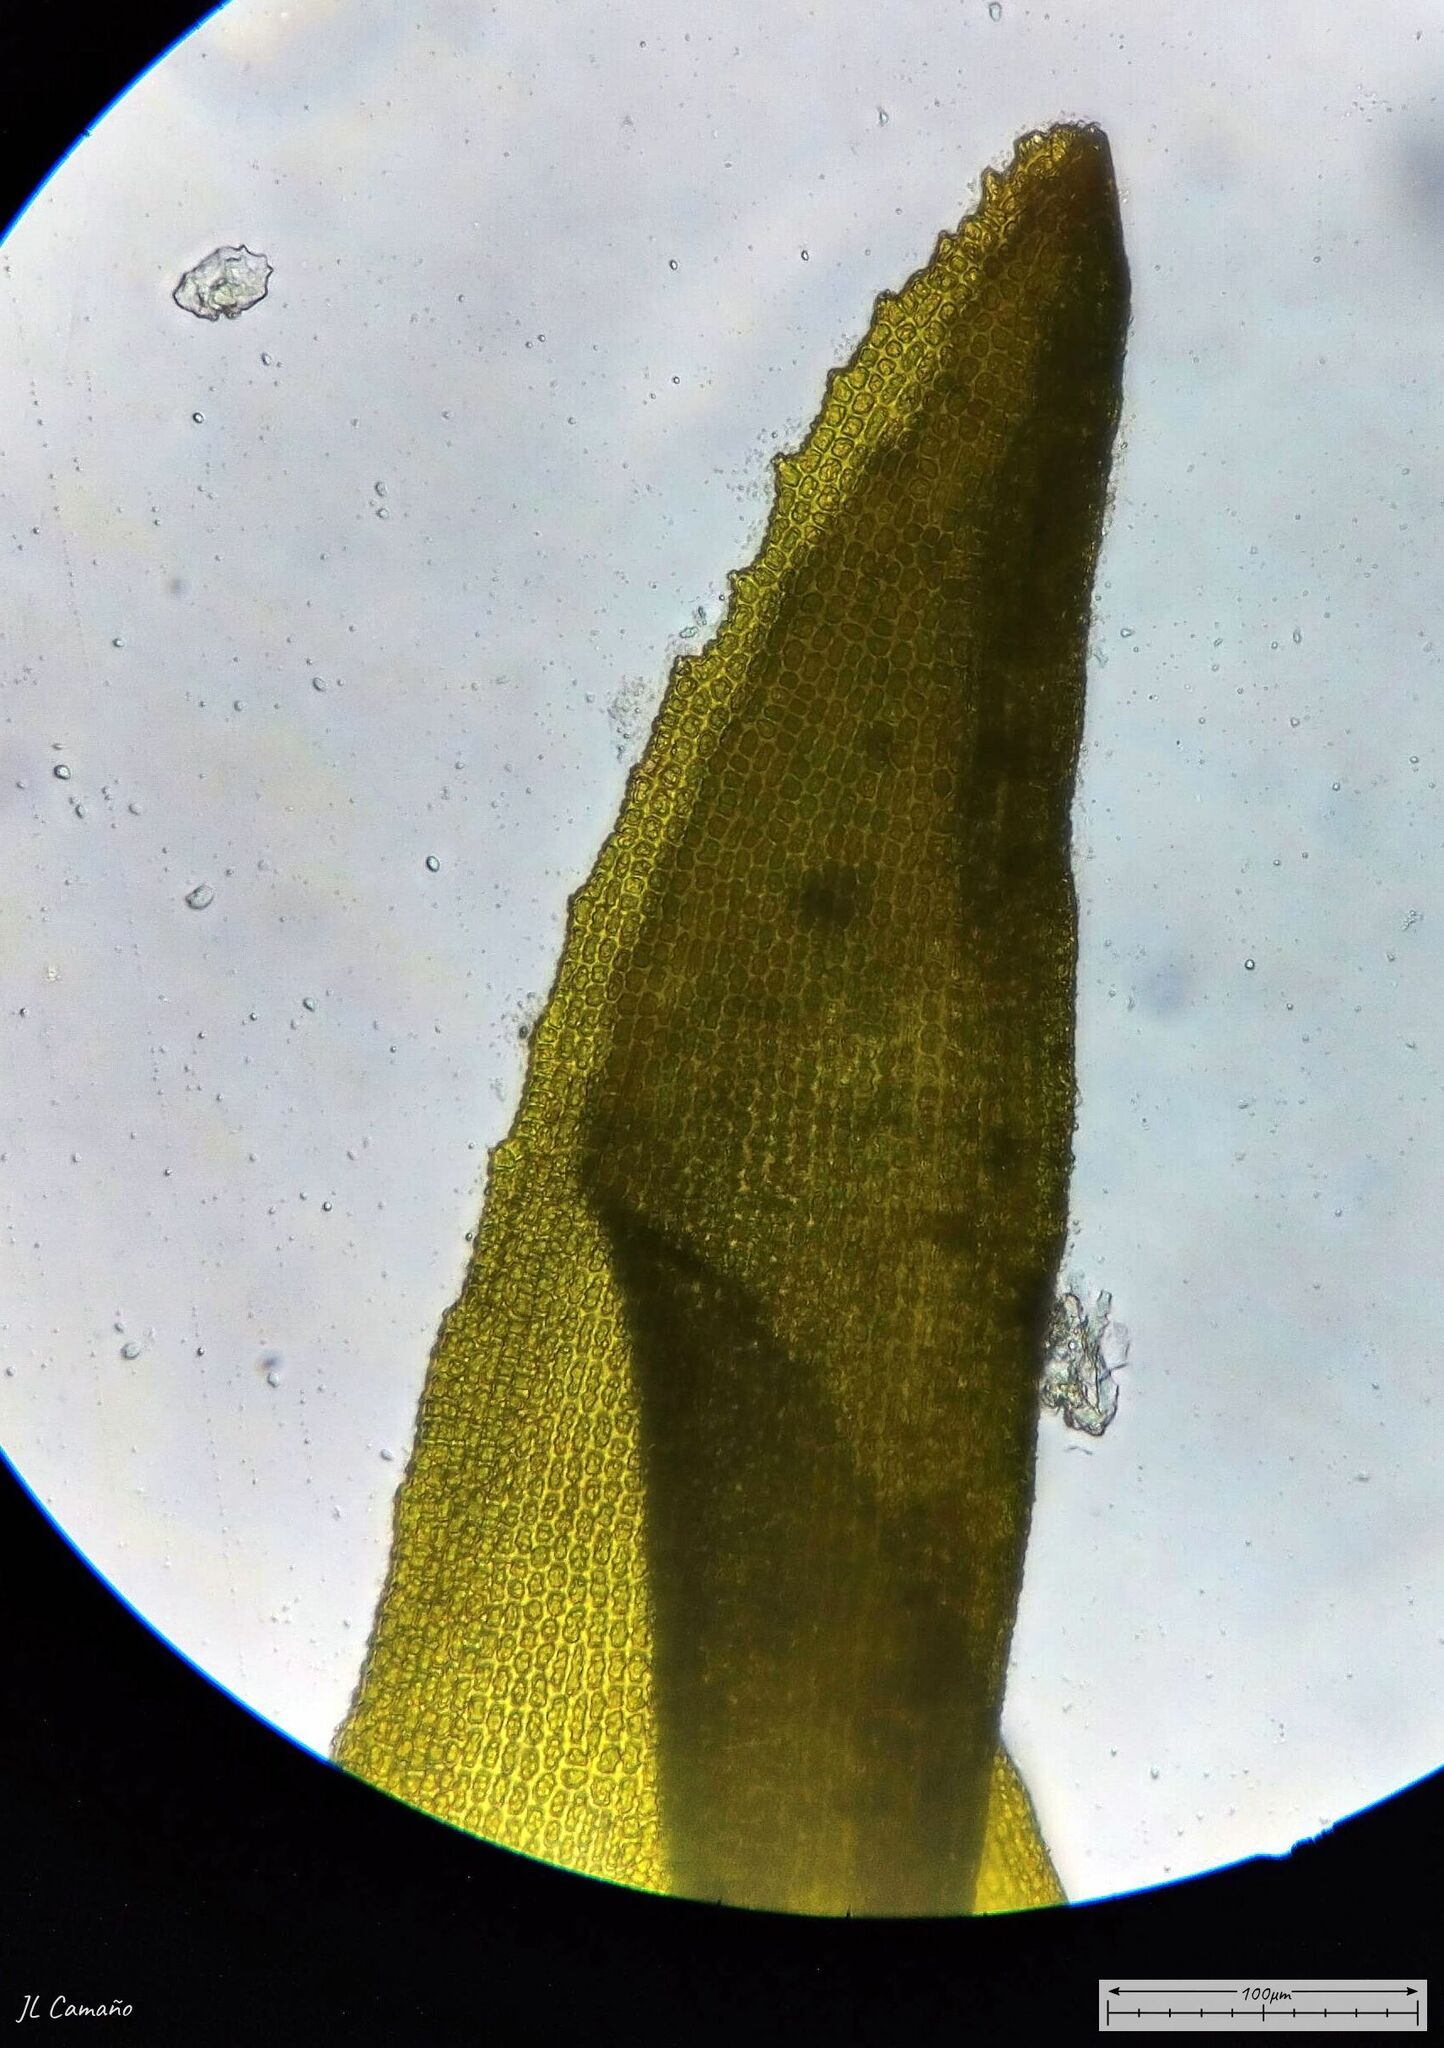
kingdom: Plantae
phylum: Bryophyta
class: Bryopsida
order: Grimmiales
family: Grimmiaceae
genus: Codriophorus
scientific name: Codriophorus acicularis
